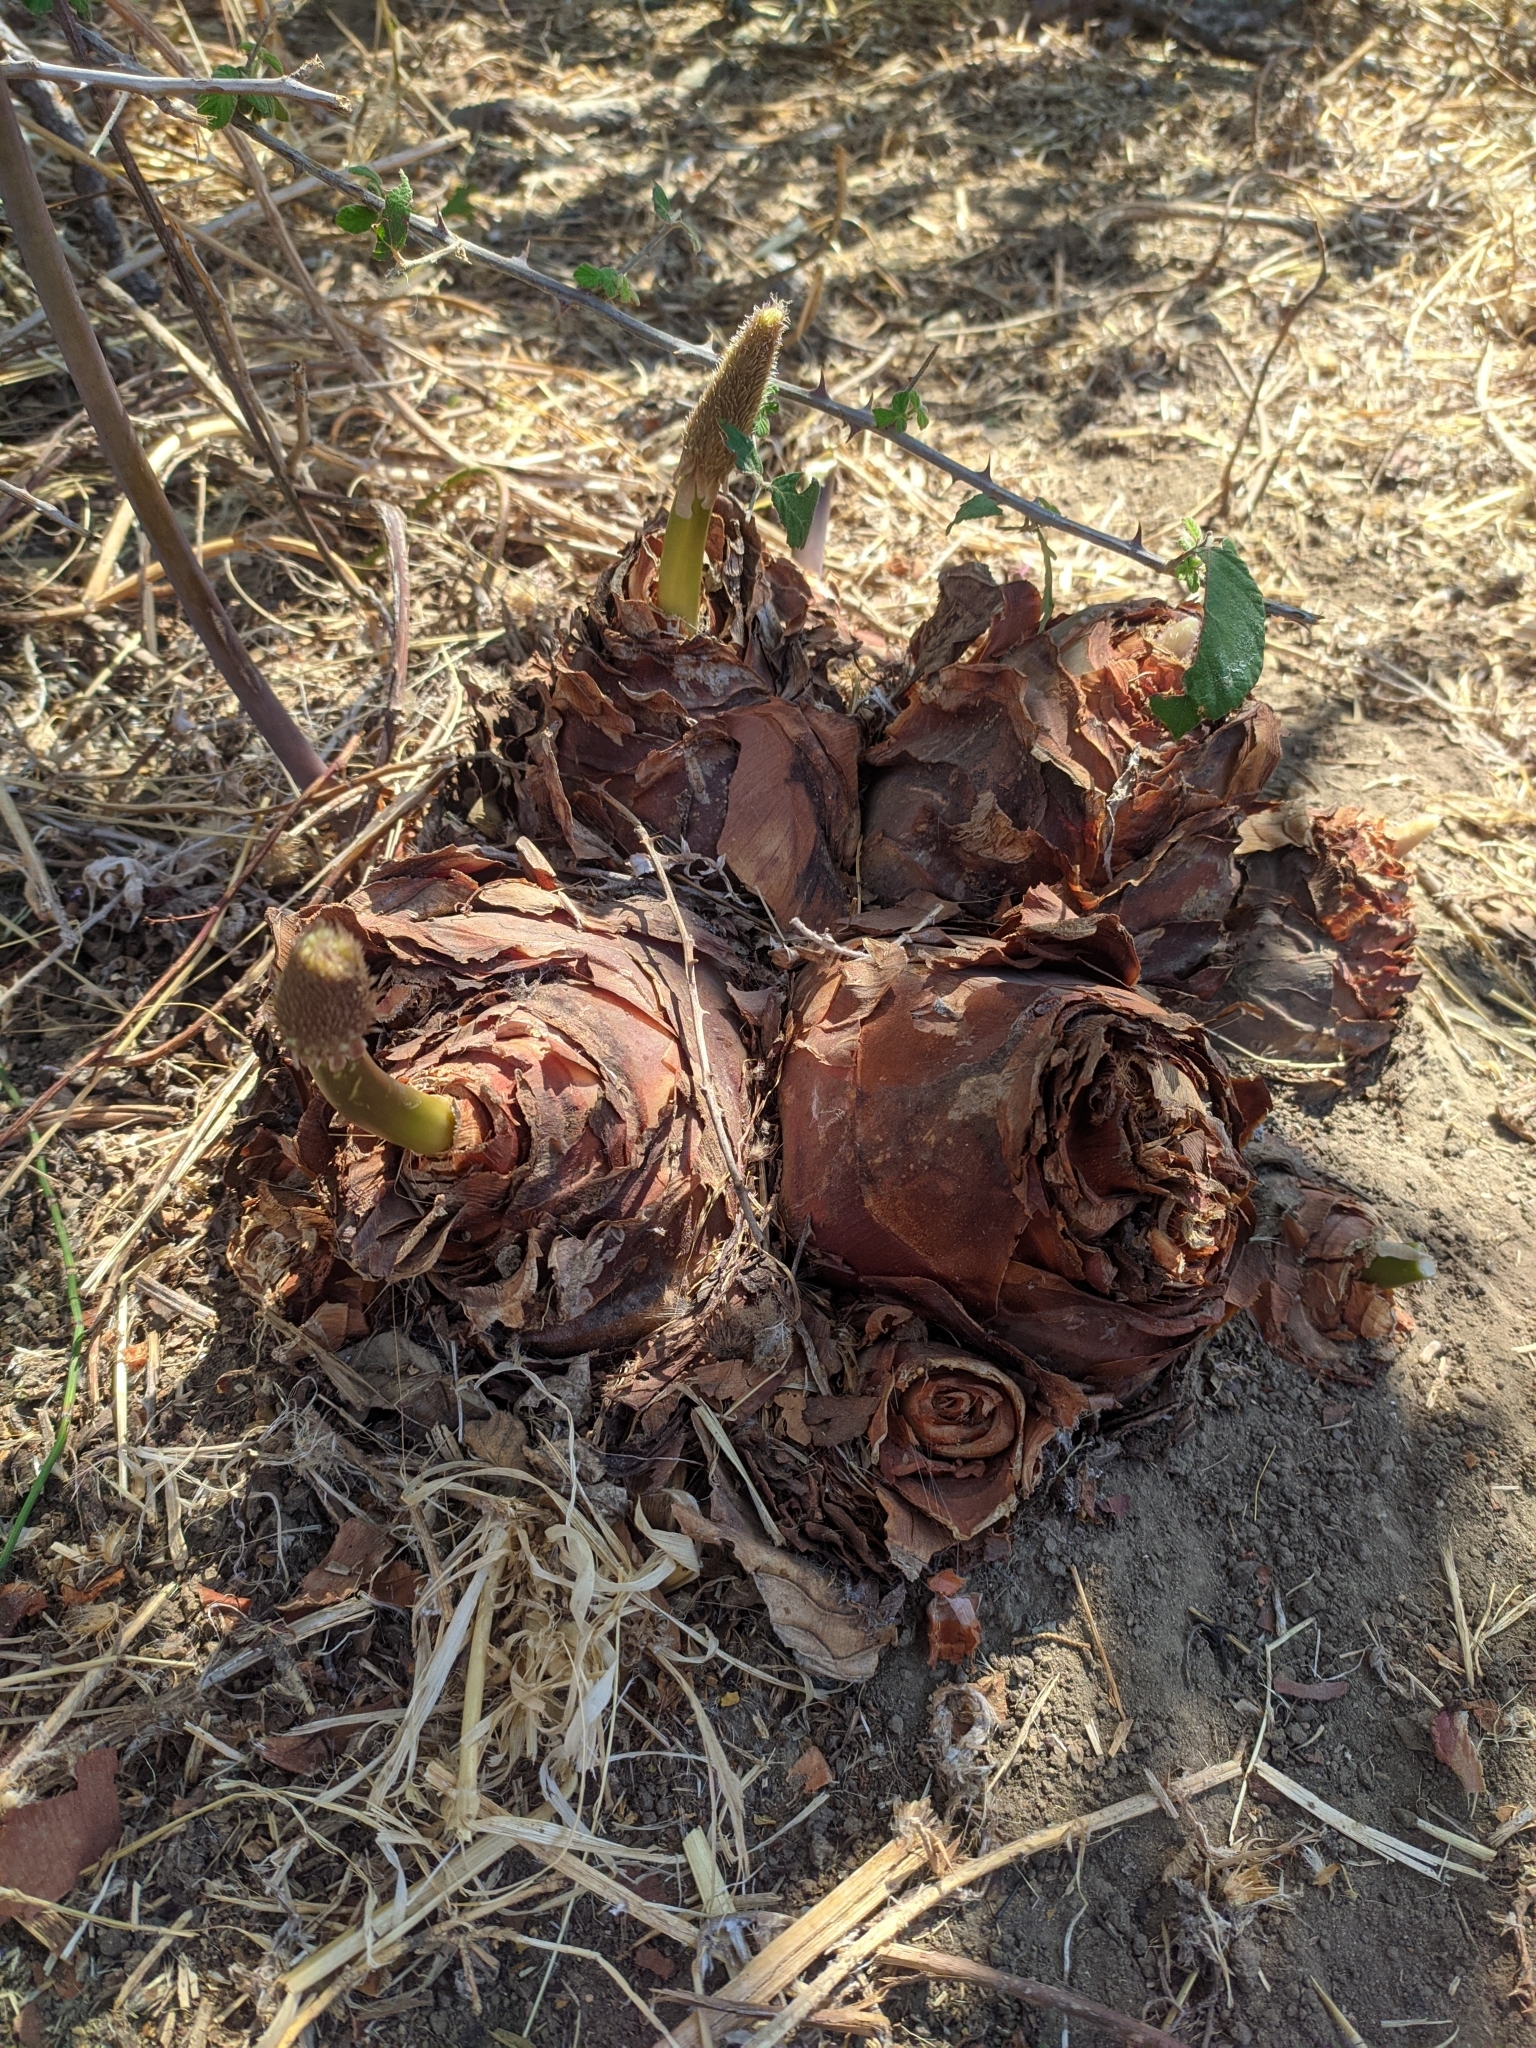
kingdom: Plantae
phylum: Tracheophyta
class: Liliopsida
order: Asparagales
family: Asparagaceae
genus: Drimia
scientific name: Drimia numidica
